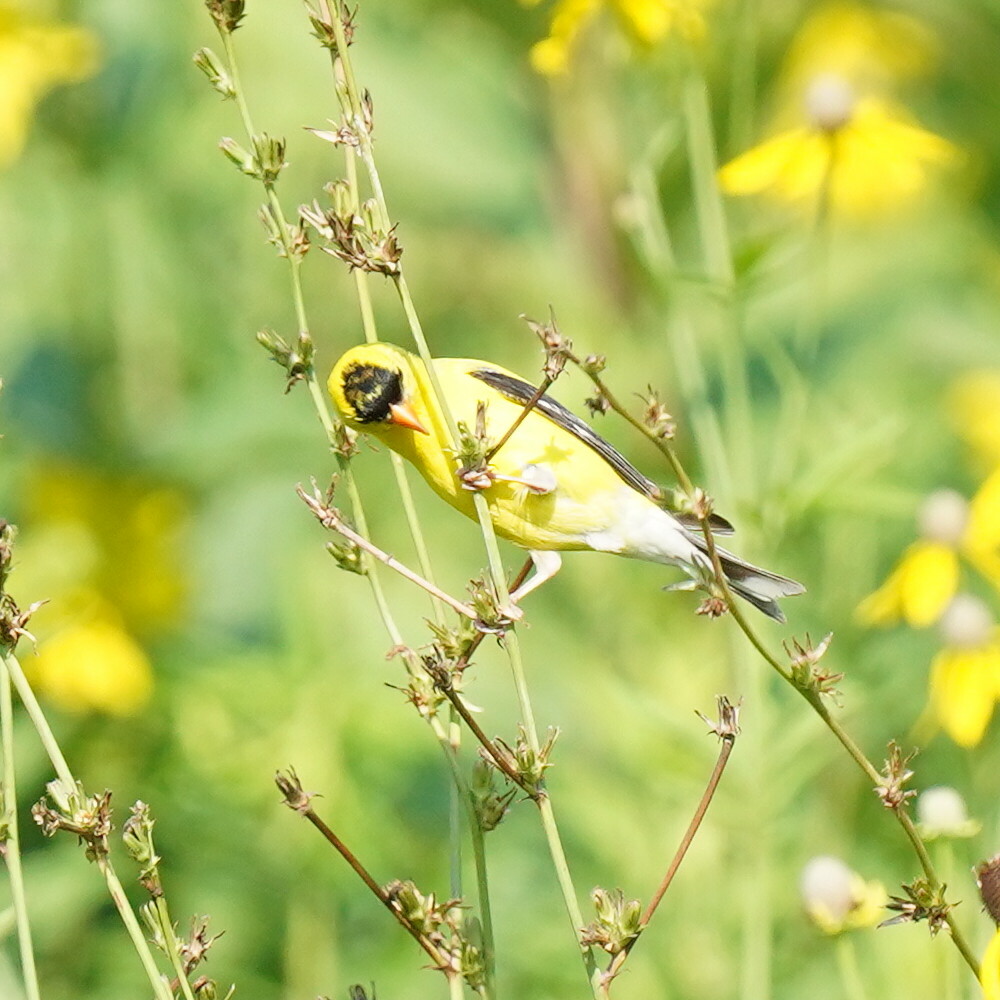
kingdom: Animalia
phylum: Chordata
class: Aves
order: Passeriformes
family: Fringillidae
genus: Spinus
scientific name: Spinus tristis
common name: American goldfinch
